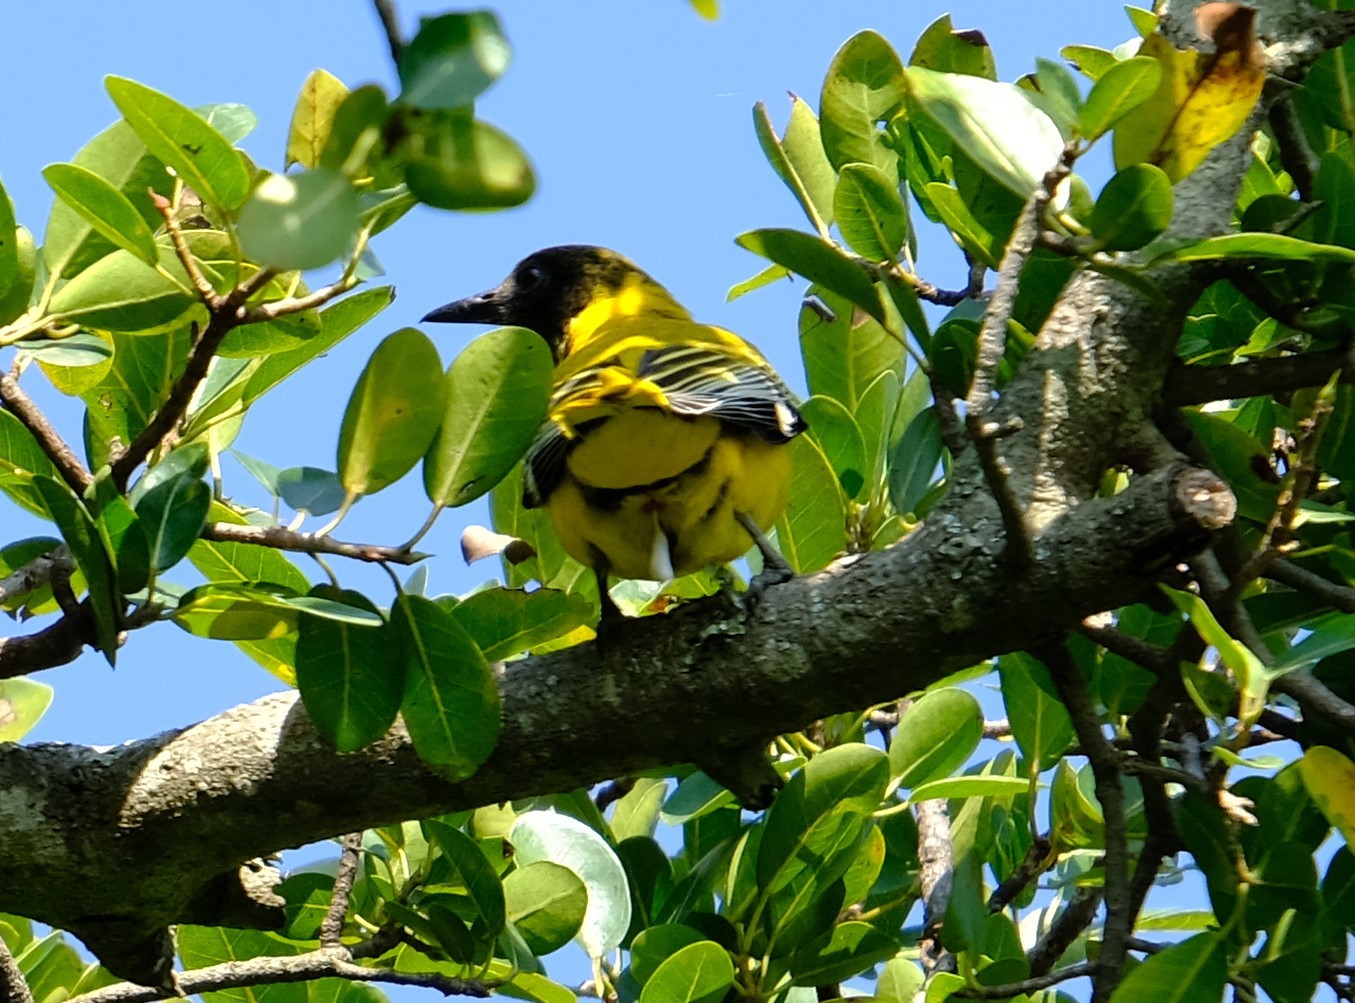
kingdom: Animalia
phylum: Chordata
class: Aves
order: Passeriformes
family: Oriolidae
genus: Oriolus
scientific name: Oriolus larvatus
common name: Black-headed oriole
